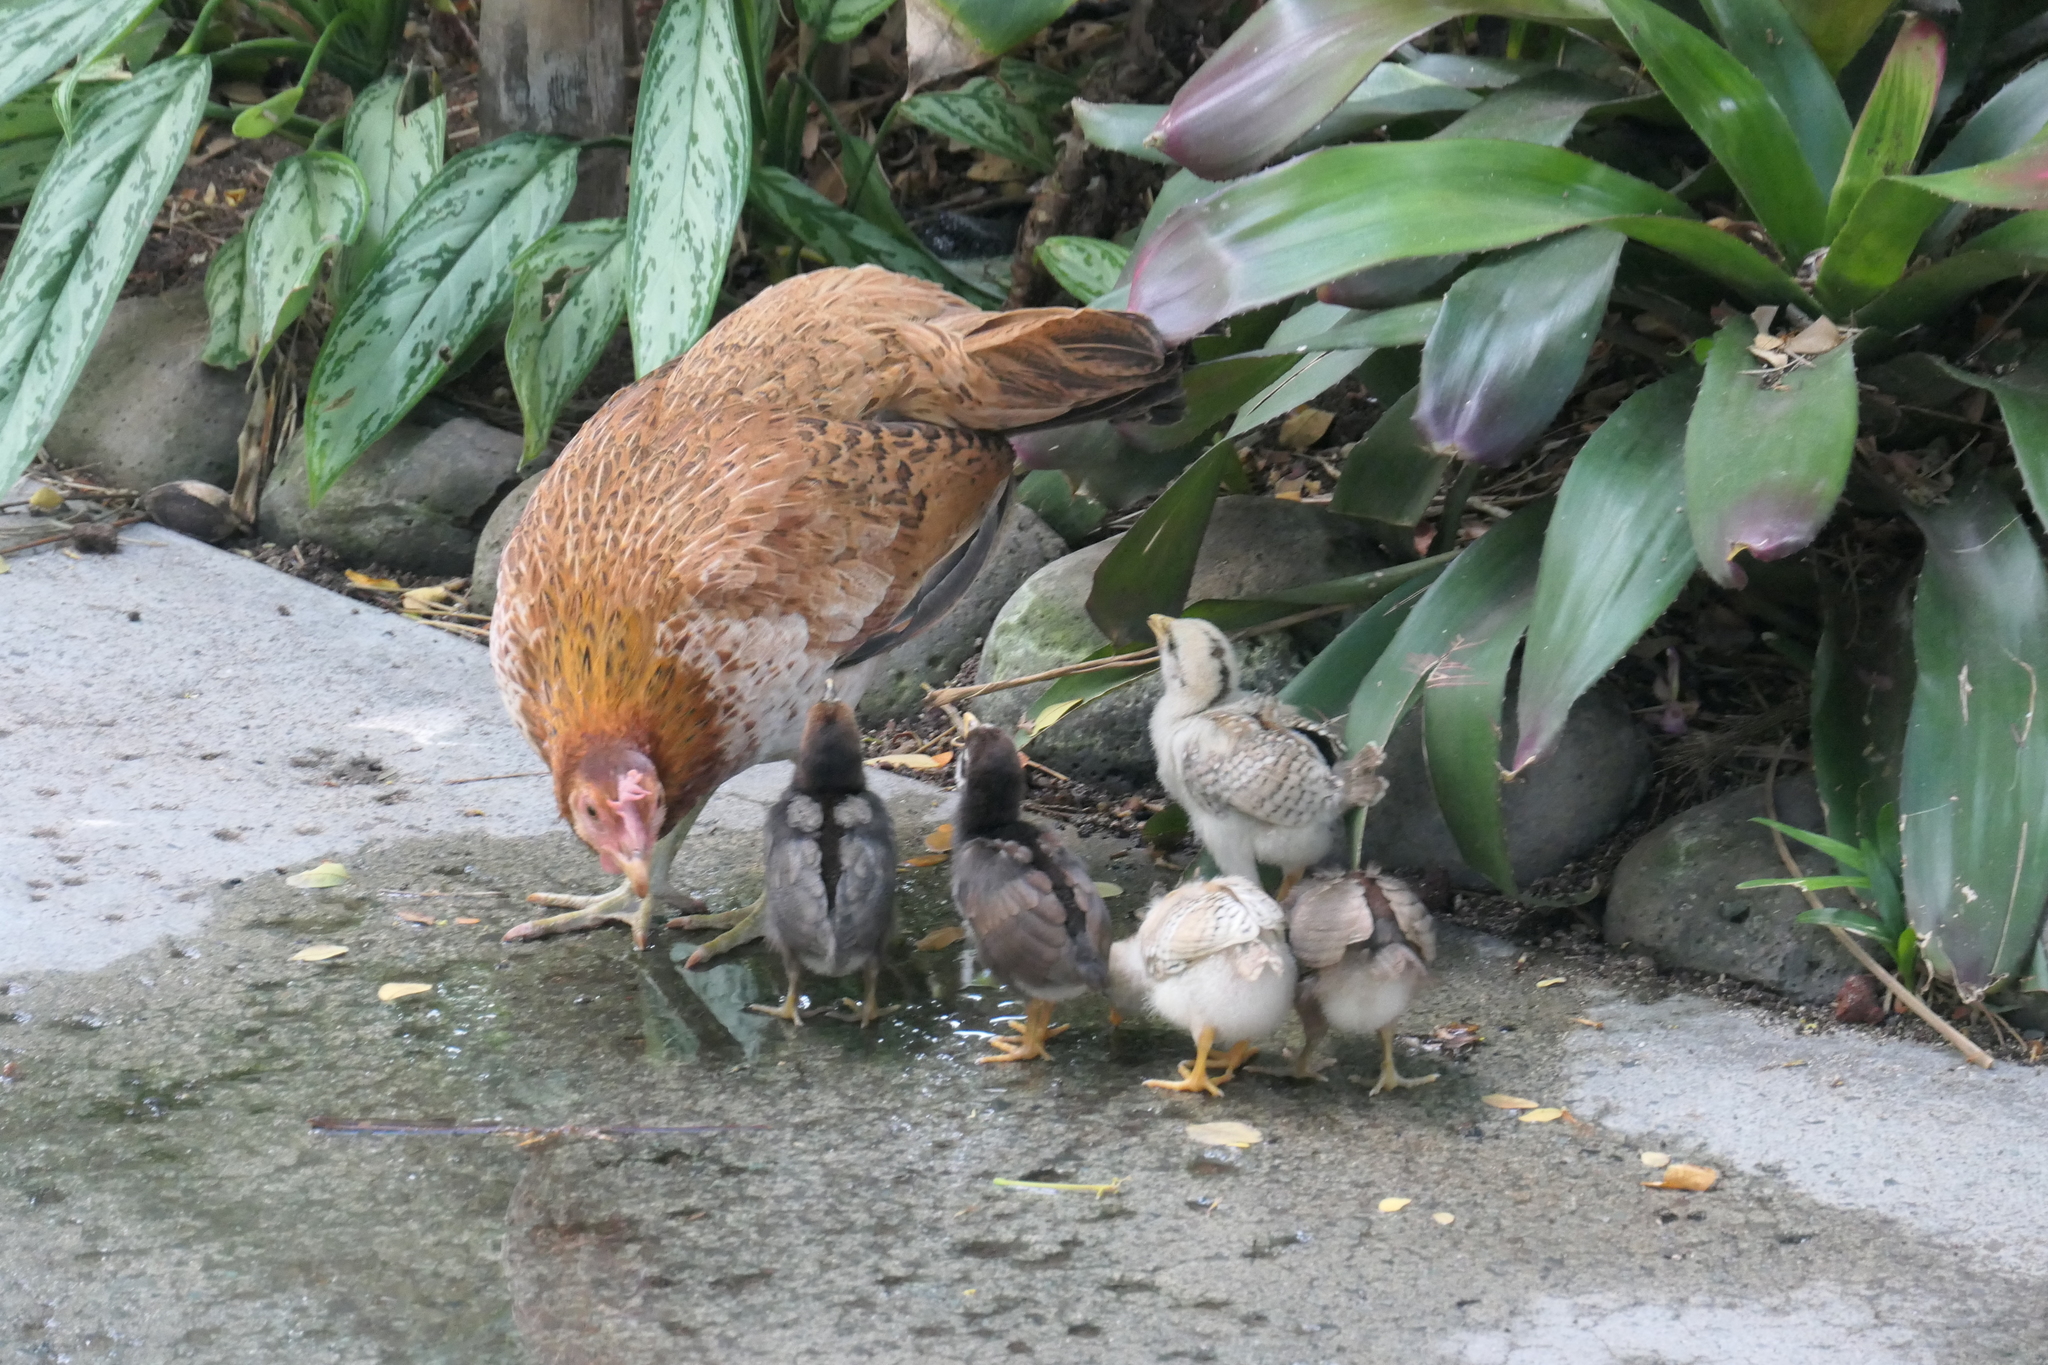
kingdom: Animalia
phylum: Chordata
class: Aves
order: Galliformes
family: Phasianidae
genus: Gallus
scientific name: Gallus gallus
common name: Red junglefowl
